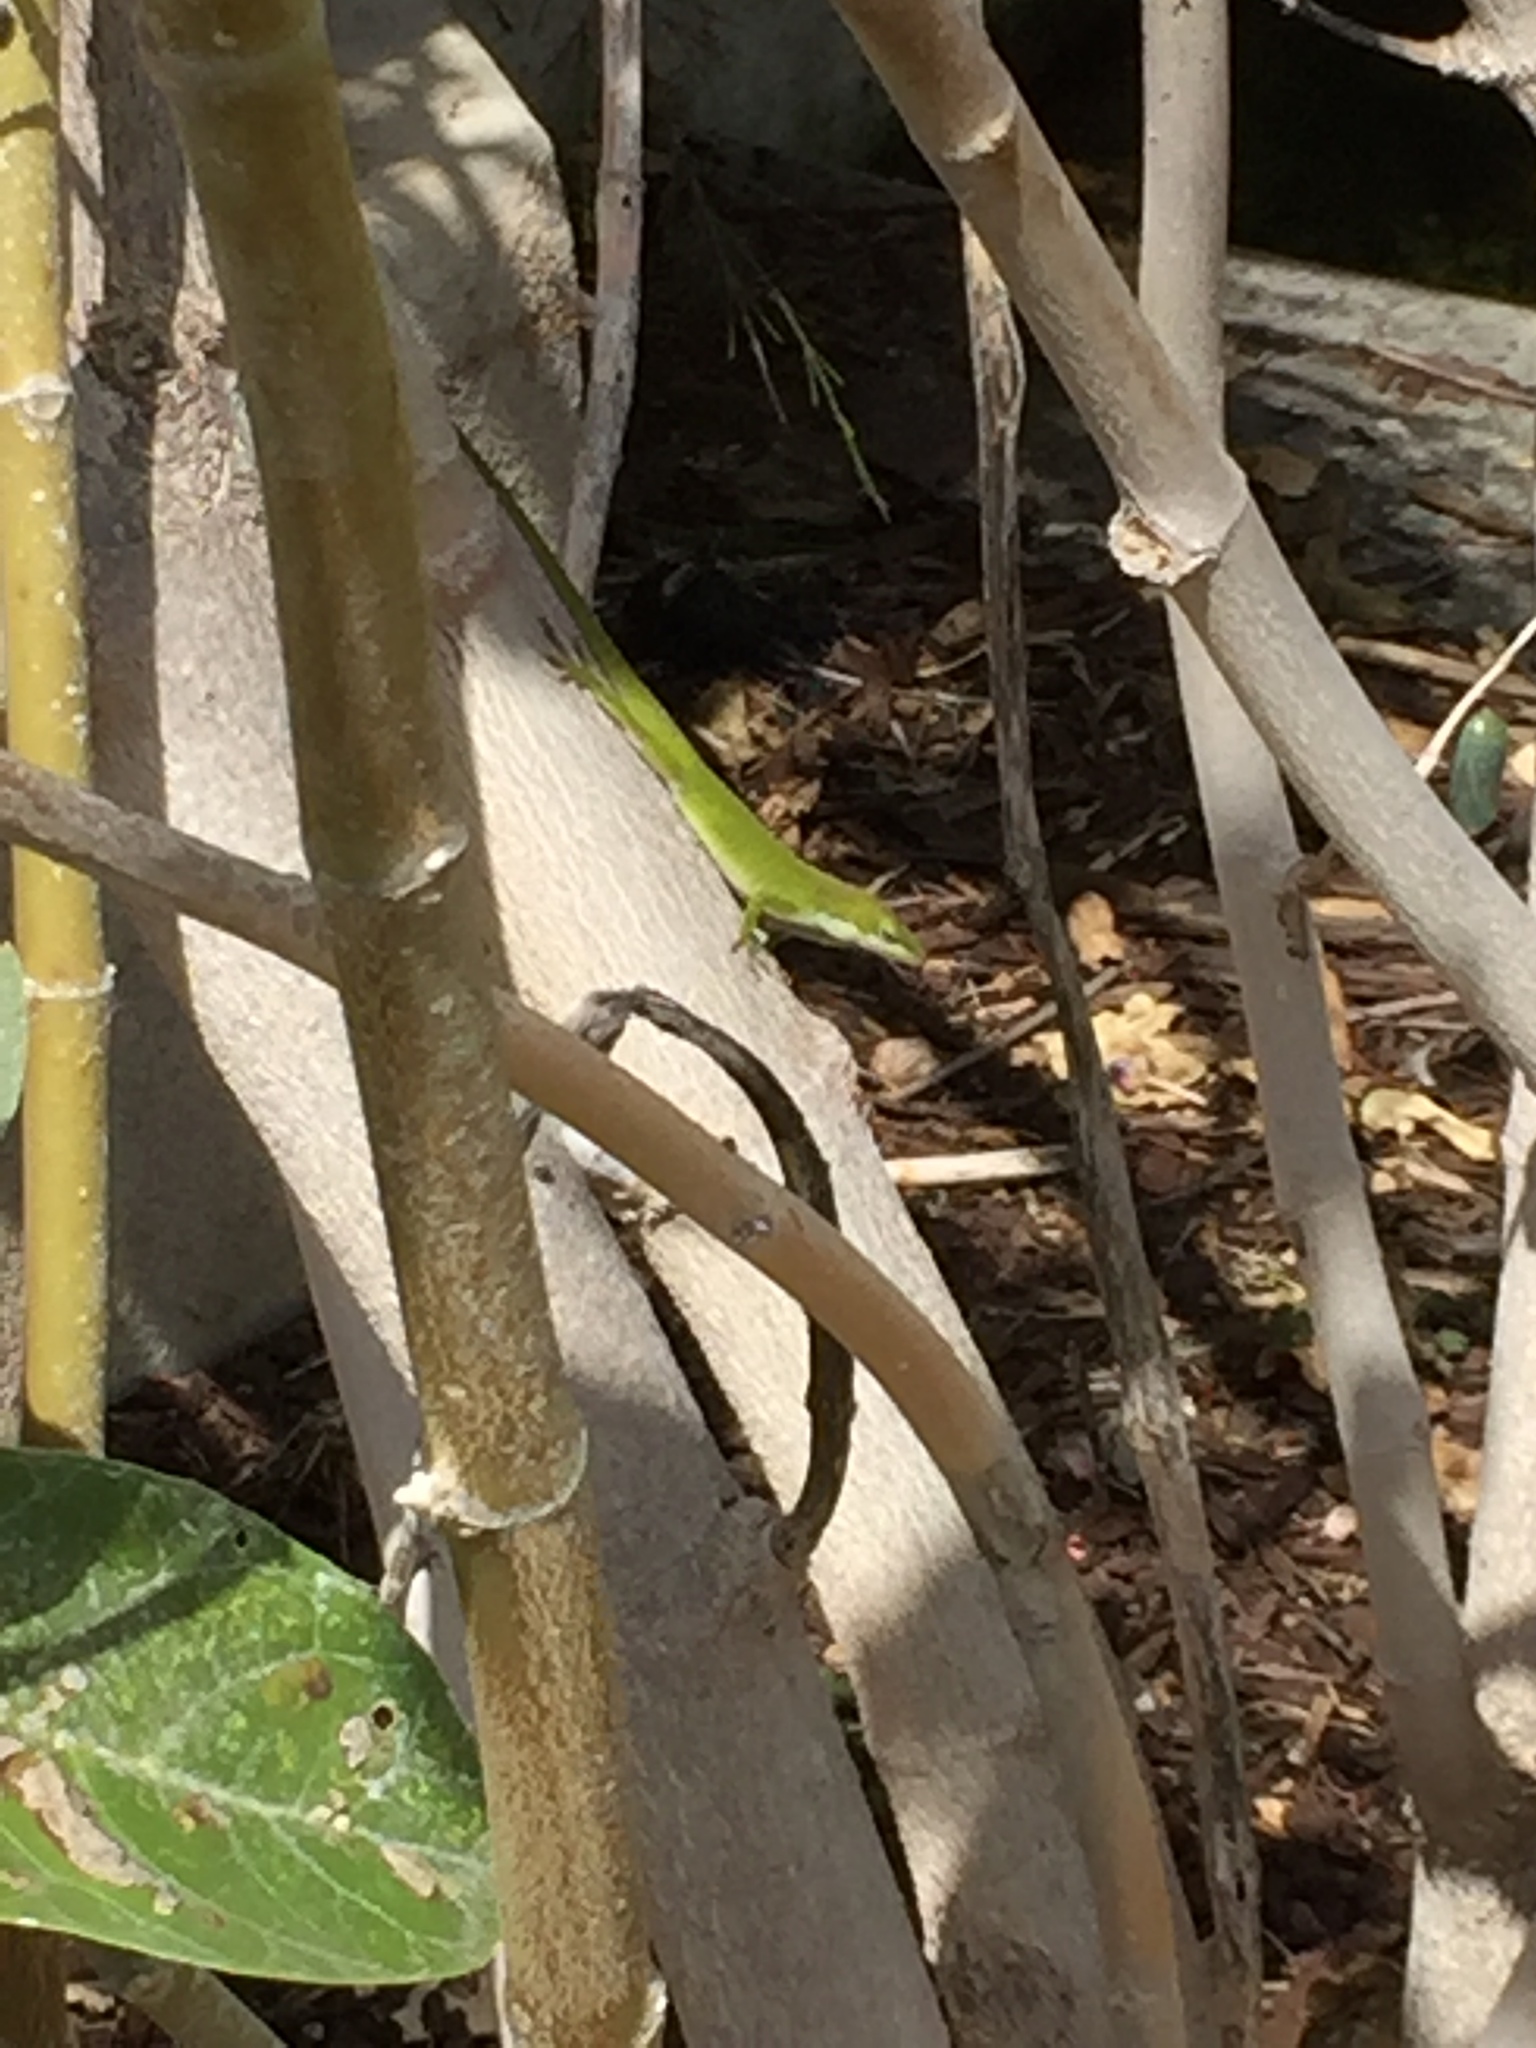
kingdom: Animalia
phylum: Chordata
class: Squamata
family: Dactyloidae
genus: Anolis
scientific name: Anolis carolinensis
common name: Green anole
